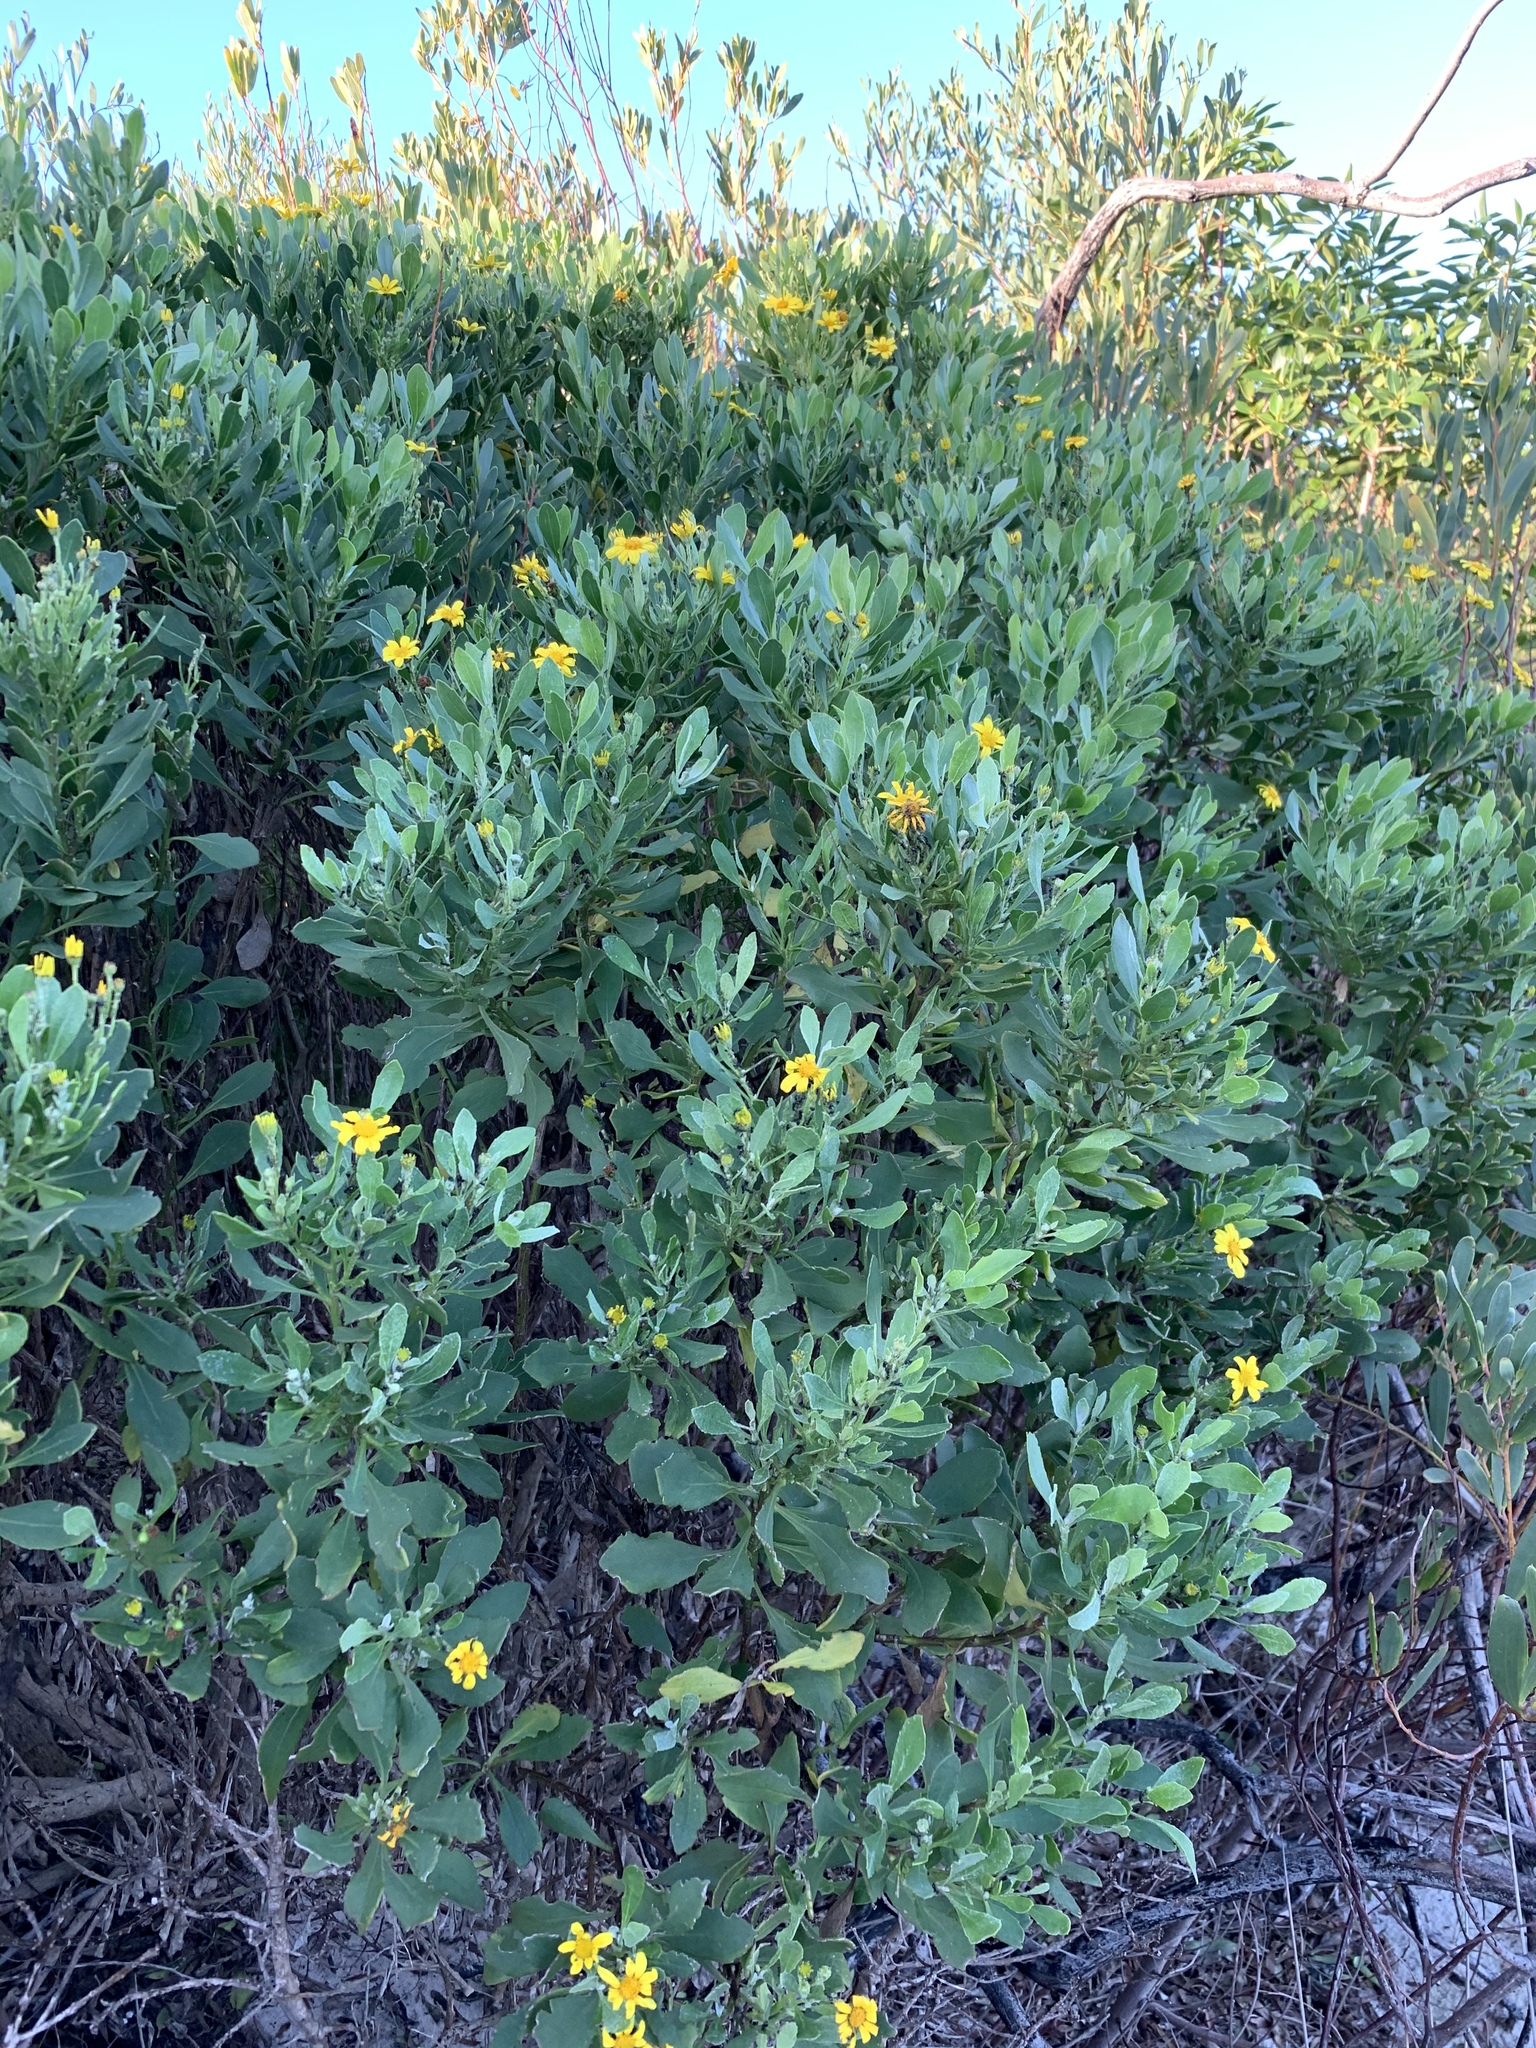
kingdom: Plantae
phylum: Tracheophyta
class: Magnoliopsida
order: Asterales
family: Asteraceae
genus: Osteospermum
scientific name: Osteospermum moniliferum
